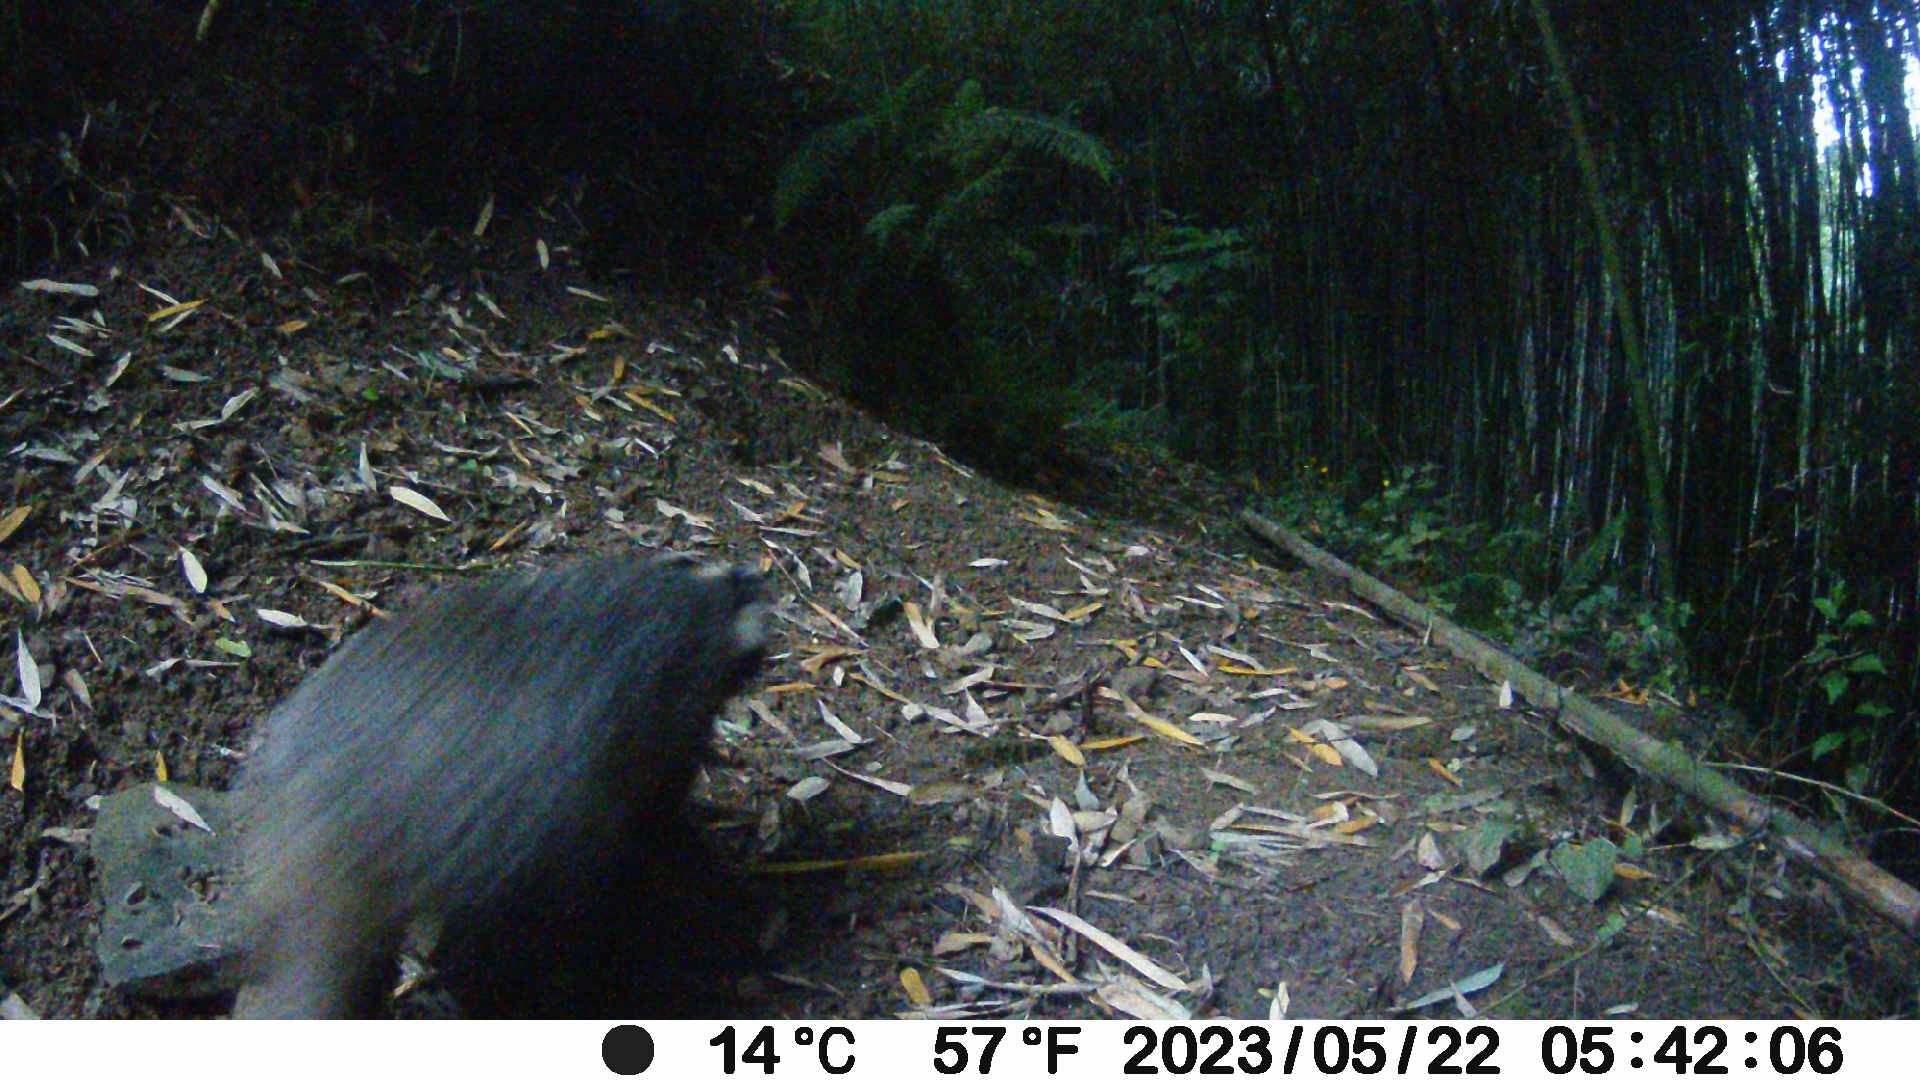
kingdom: Animalia
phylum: Chordata
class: Mammalia
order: Carnivora
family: Mustelidae
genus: Meles
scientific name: Meles meles
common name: Eurasian badger
